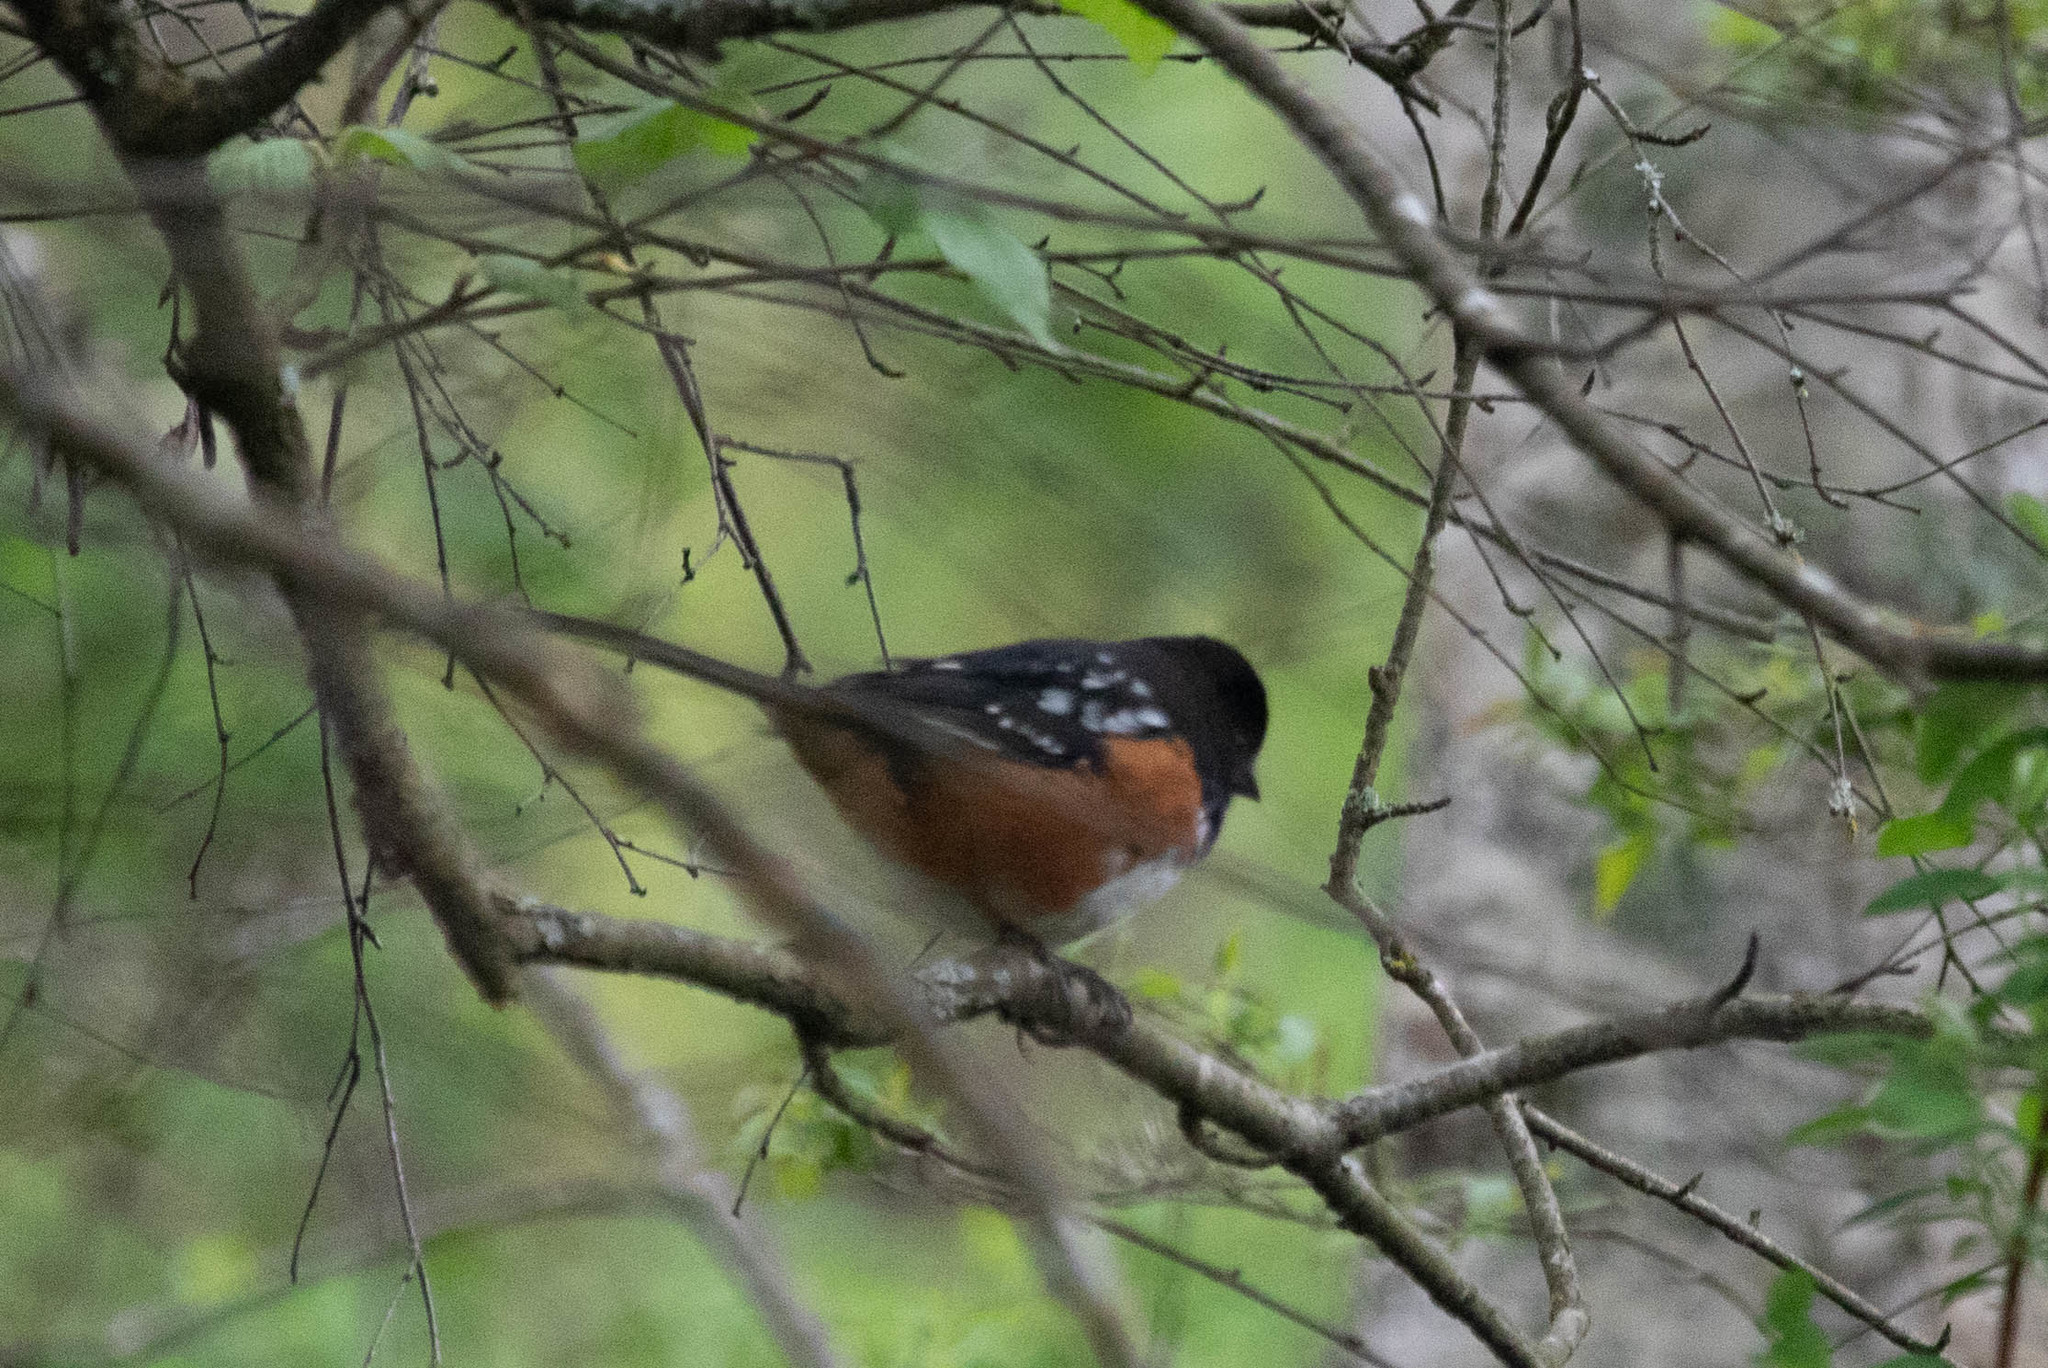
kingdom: Animalia
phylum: Chordata
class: Aves
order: Passeriformes
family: Passerellidae
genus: Pipilo
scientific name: Pipilo maculatus
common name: Spotted towhee
